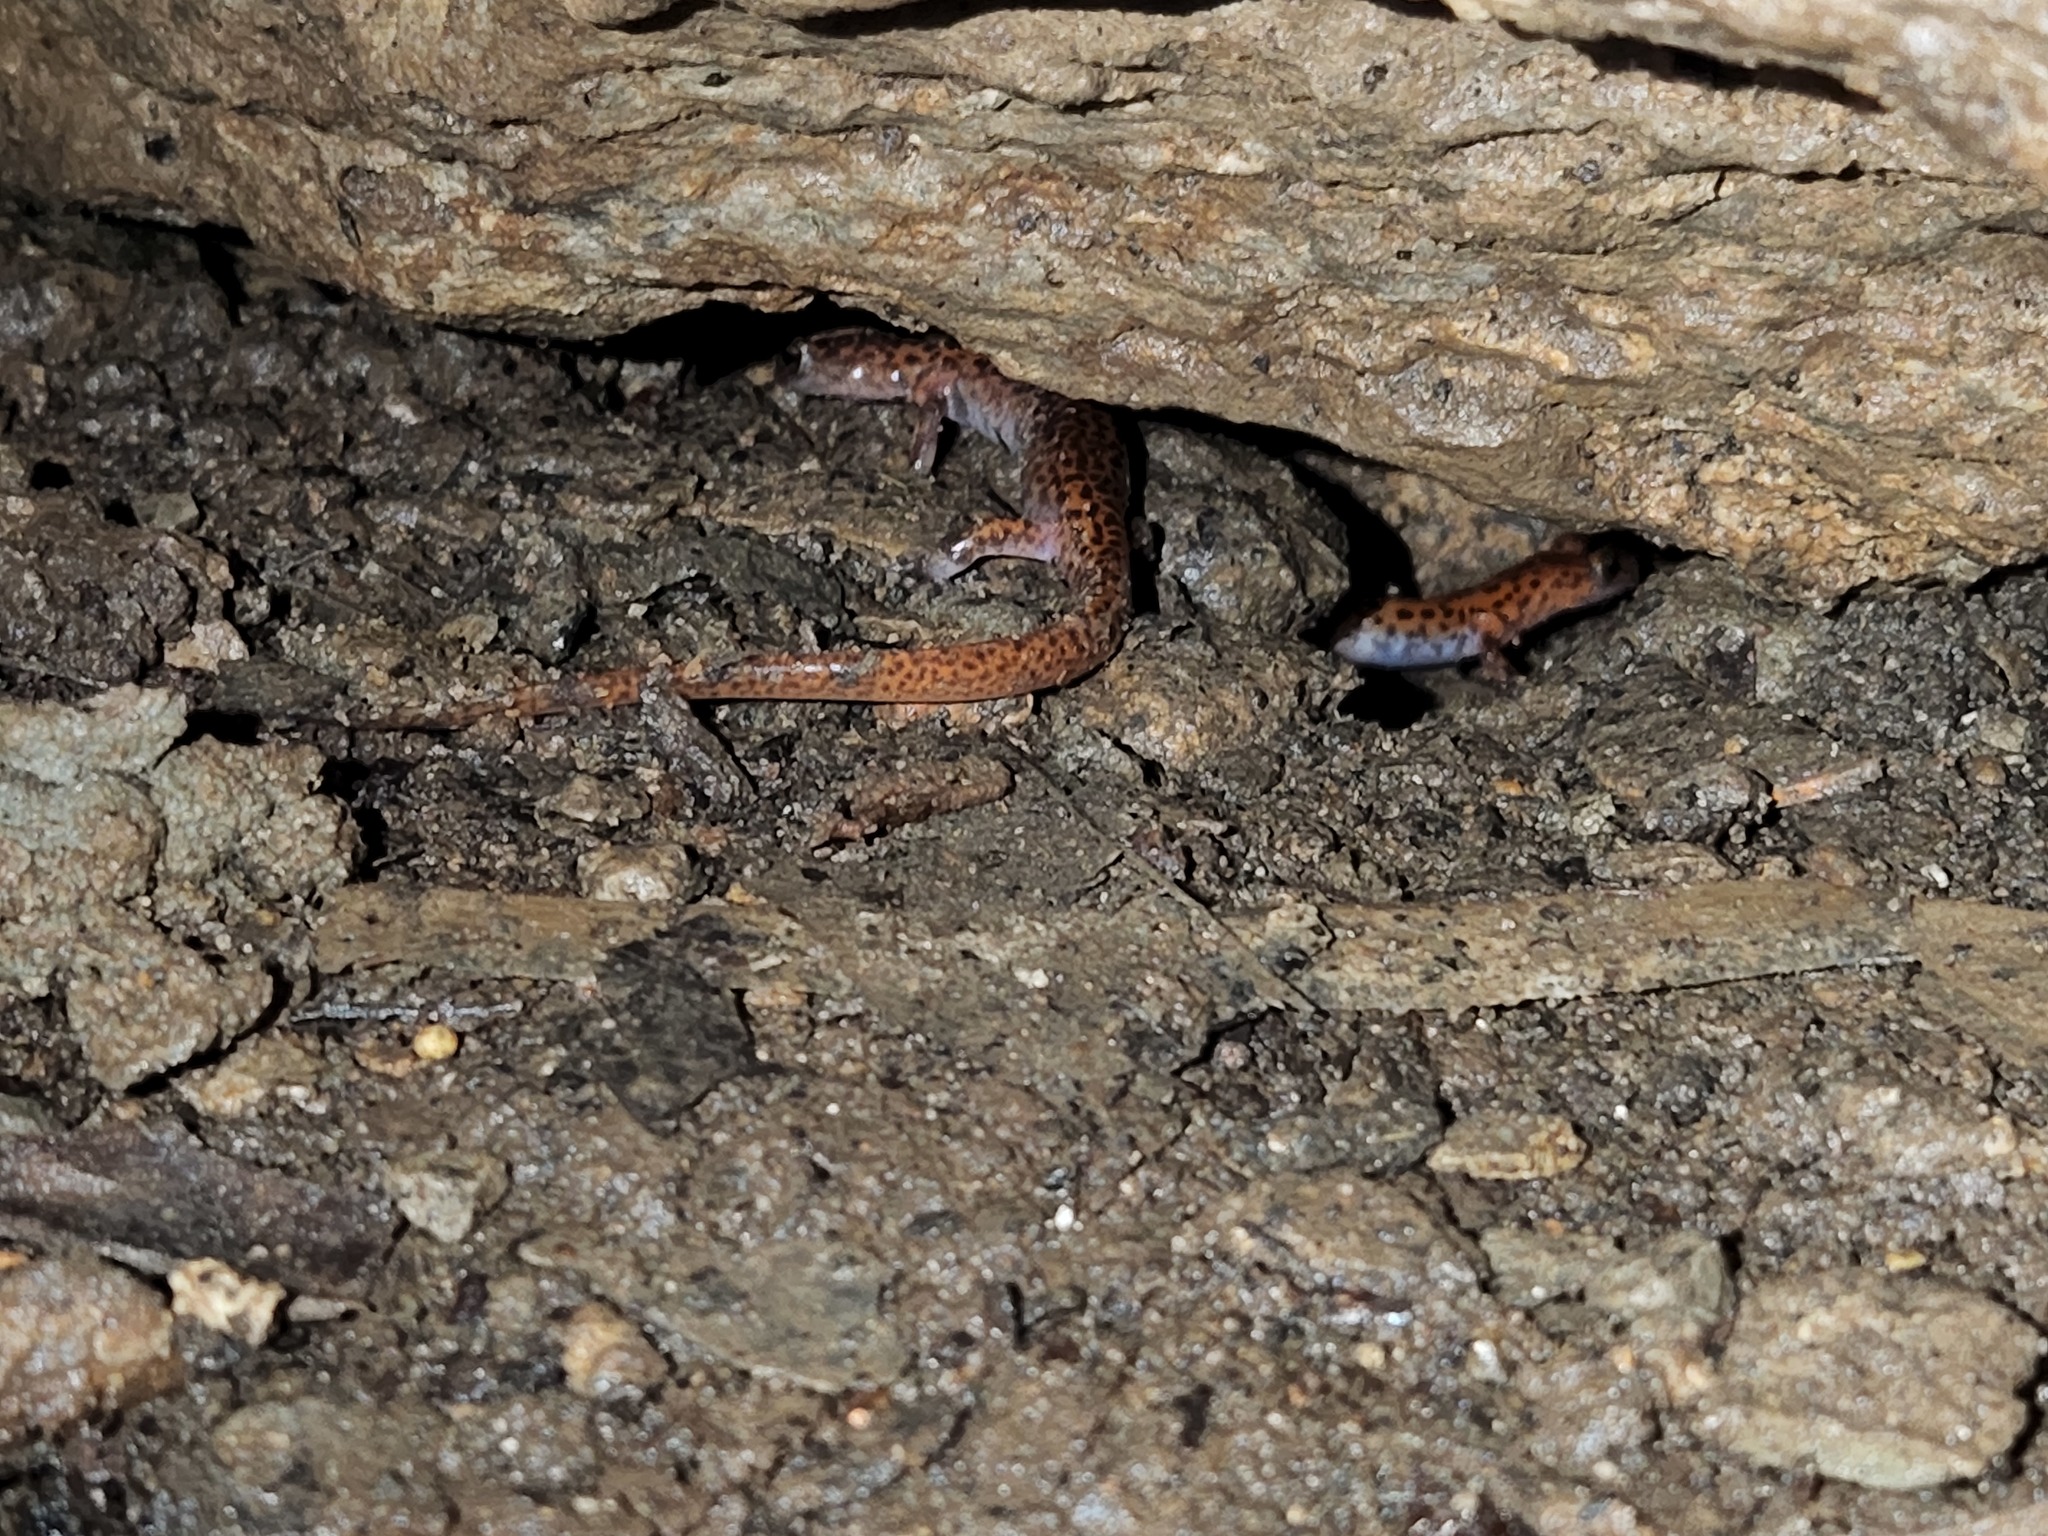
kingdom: Animalia
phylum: Chordata
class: Amphibia
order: Caudata
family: Plethodontidae
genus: Eurycea
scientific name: Eurycea lucifuga
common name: Cave salamander
